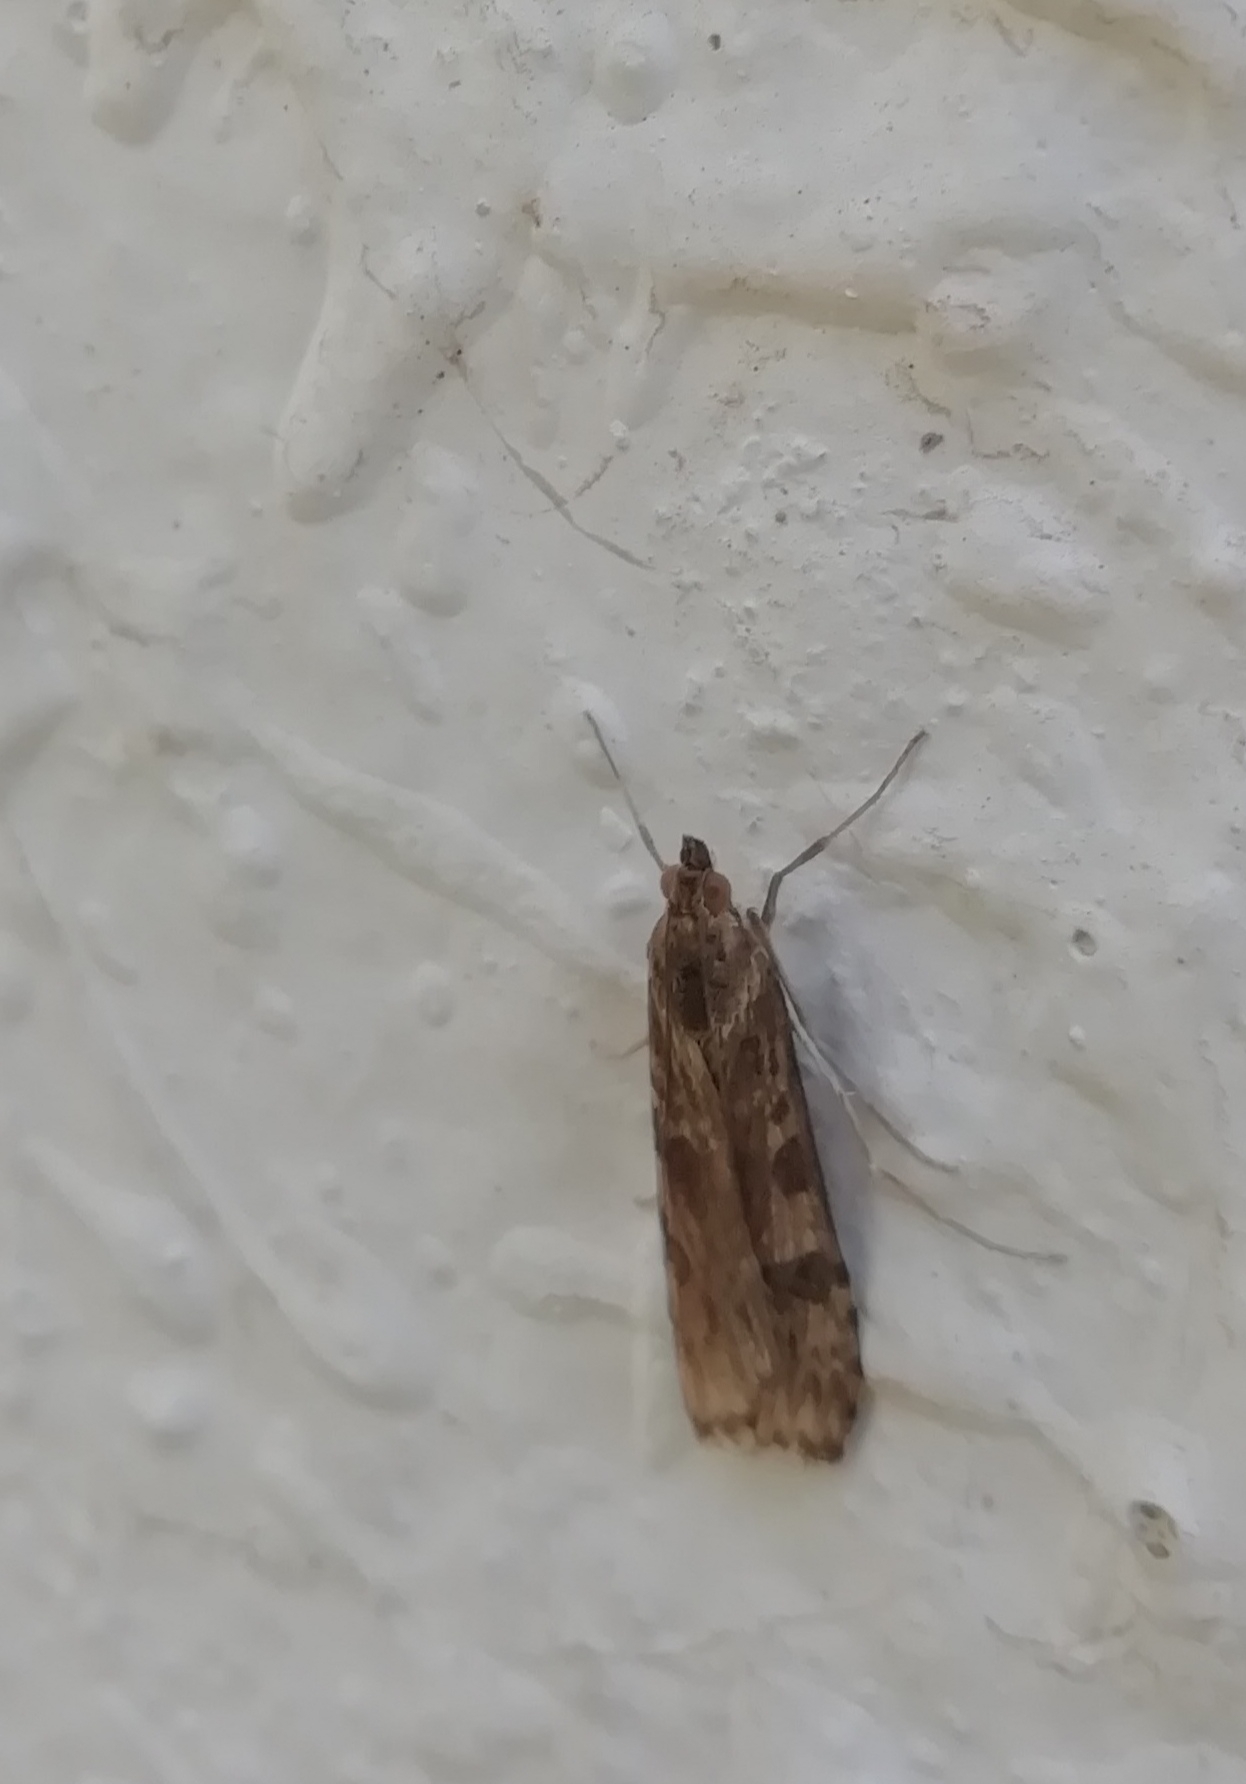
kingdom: Animalia
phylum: Arthropoda
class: Insecta
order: Lepidoptera
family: Crambidae
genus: Nomophila
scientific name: Nomophila noctuella
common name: Rush veneer
